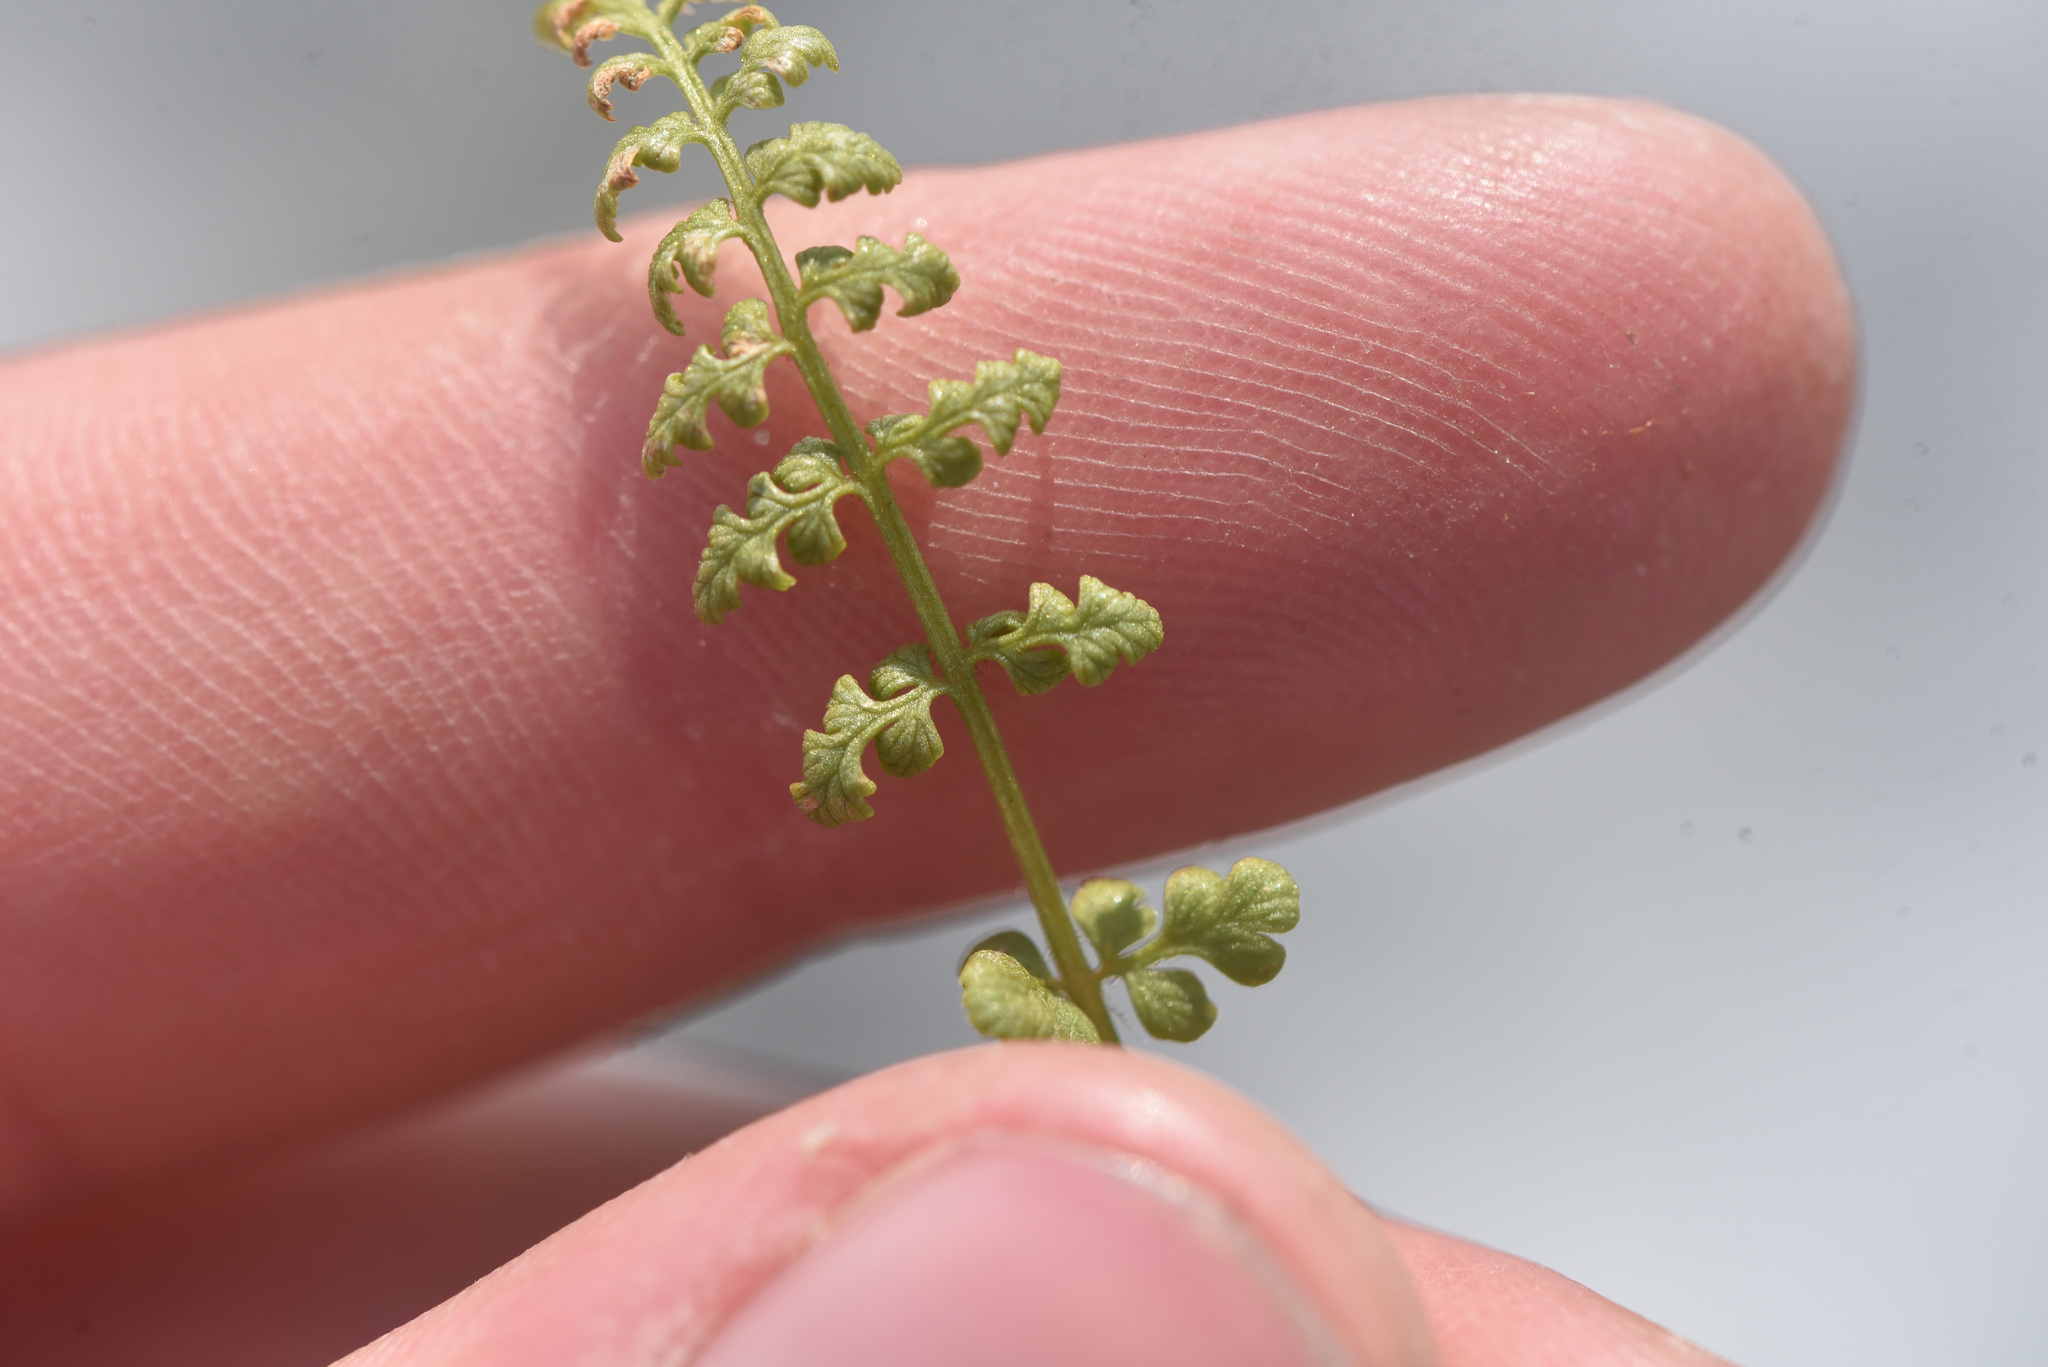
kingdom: Plantae
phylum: Tracheophyta
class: Polypodiopsida
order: Polypodiales
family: Cystopteridaceae
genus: Cystopteris
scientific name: Cystopteris fragilis
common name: Brittle bladder fern
